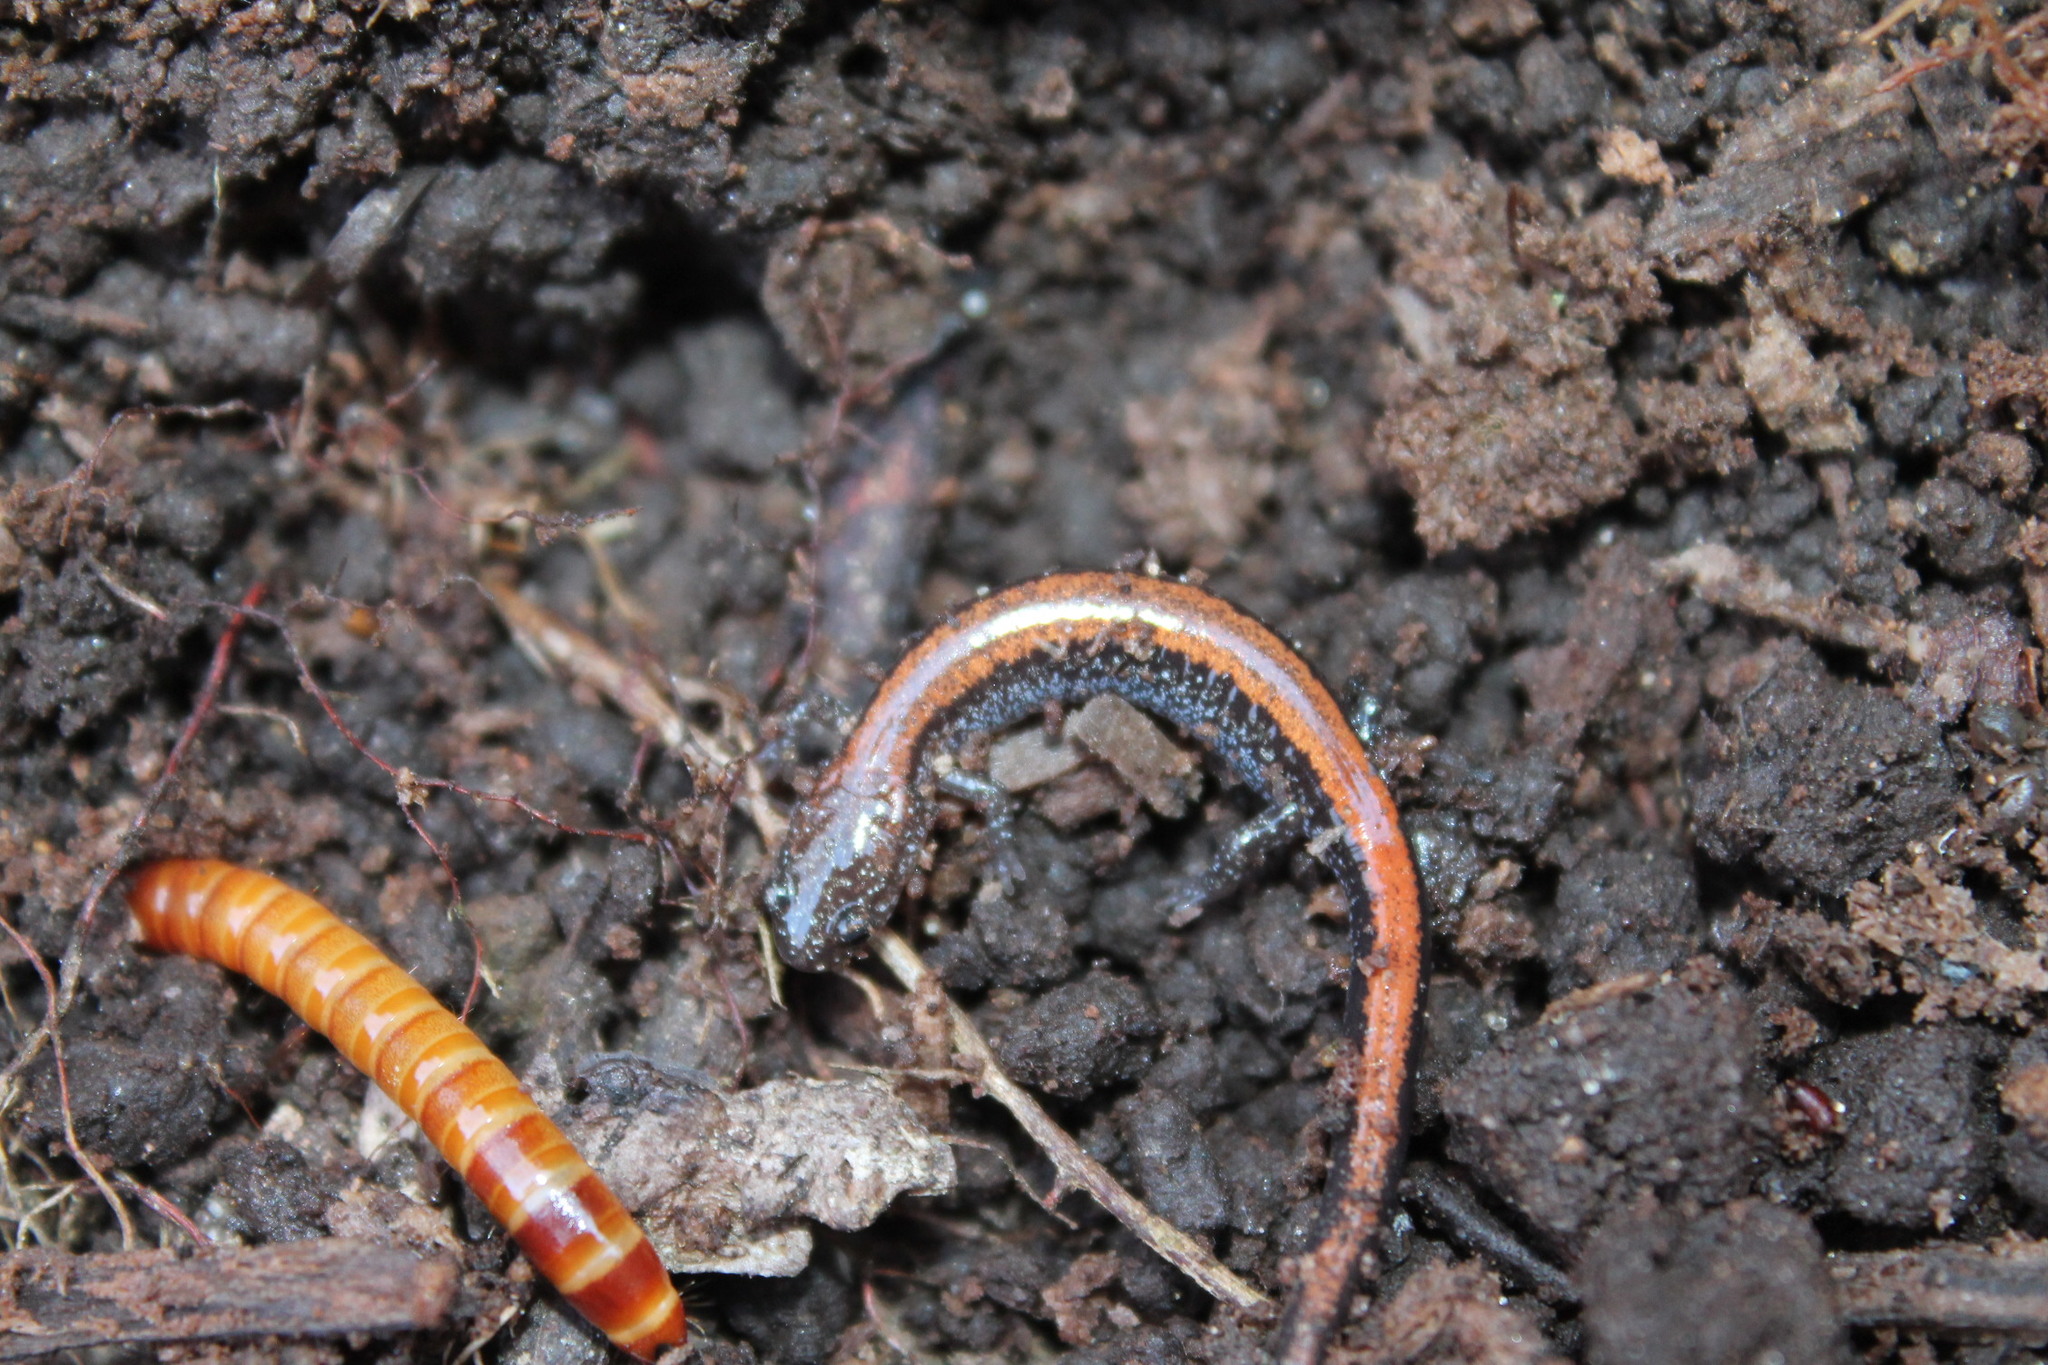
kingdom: Animalia
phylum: Chordata
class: Amphibia
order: Caudata
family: Plethodontidae
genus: Plethodon
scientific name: Plethodon cinereus
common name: Redback salamander
